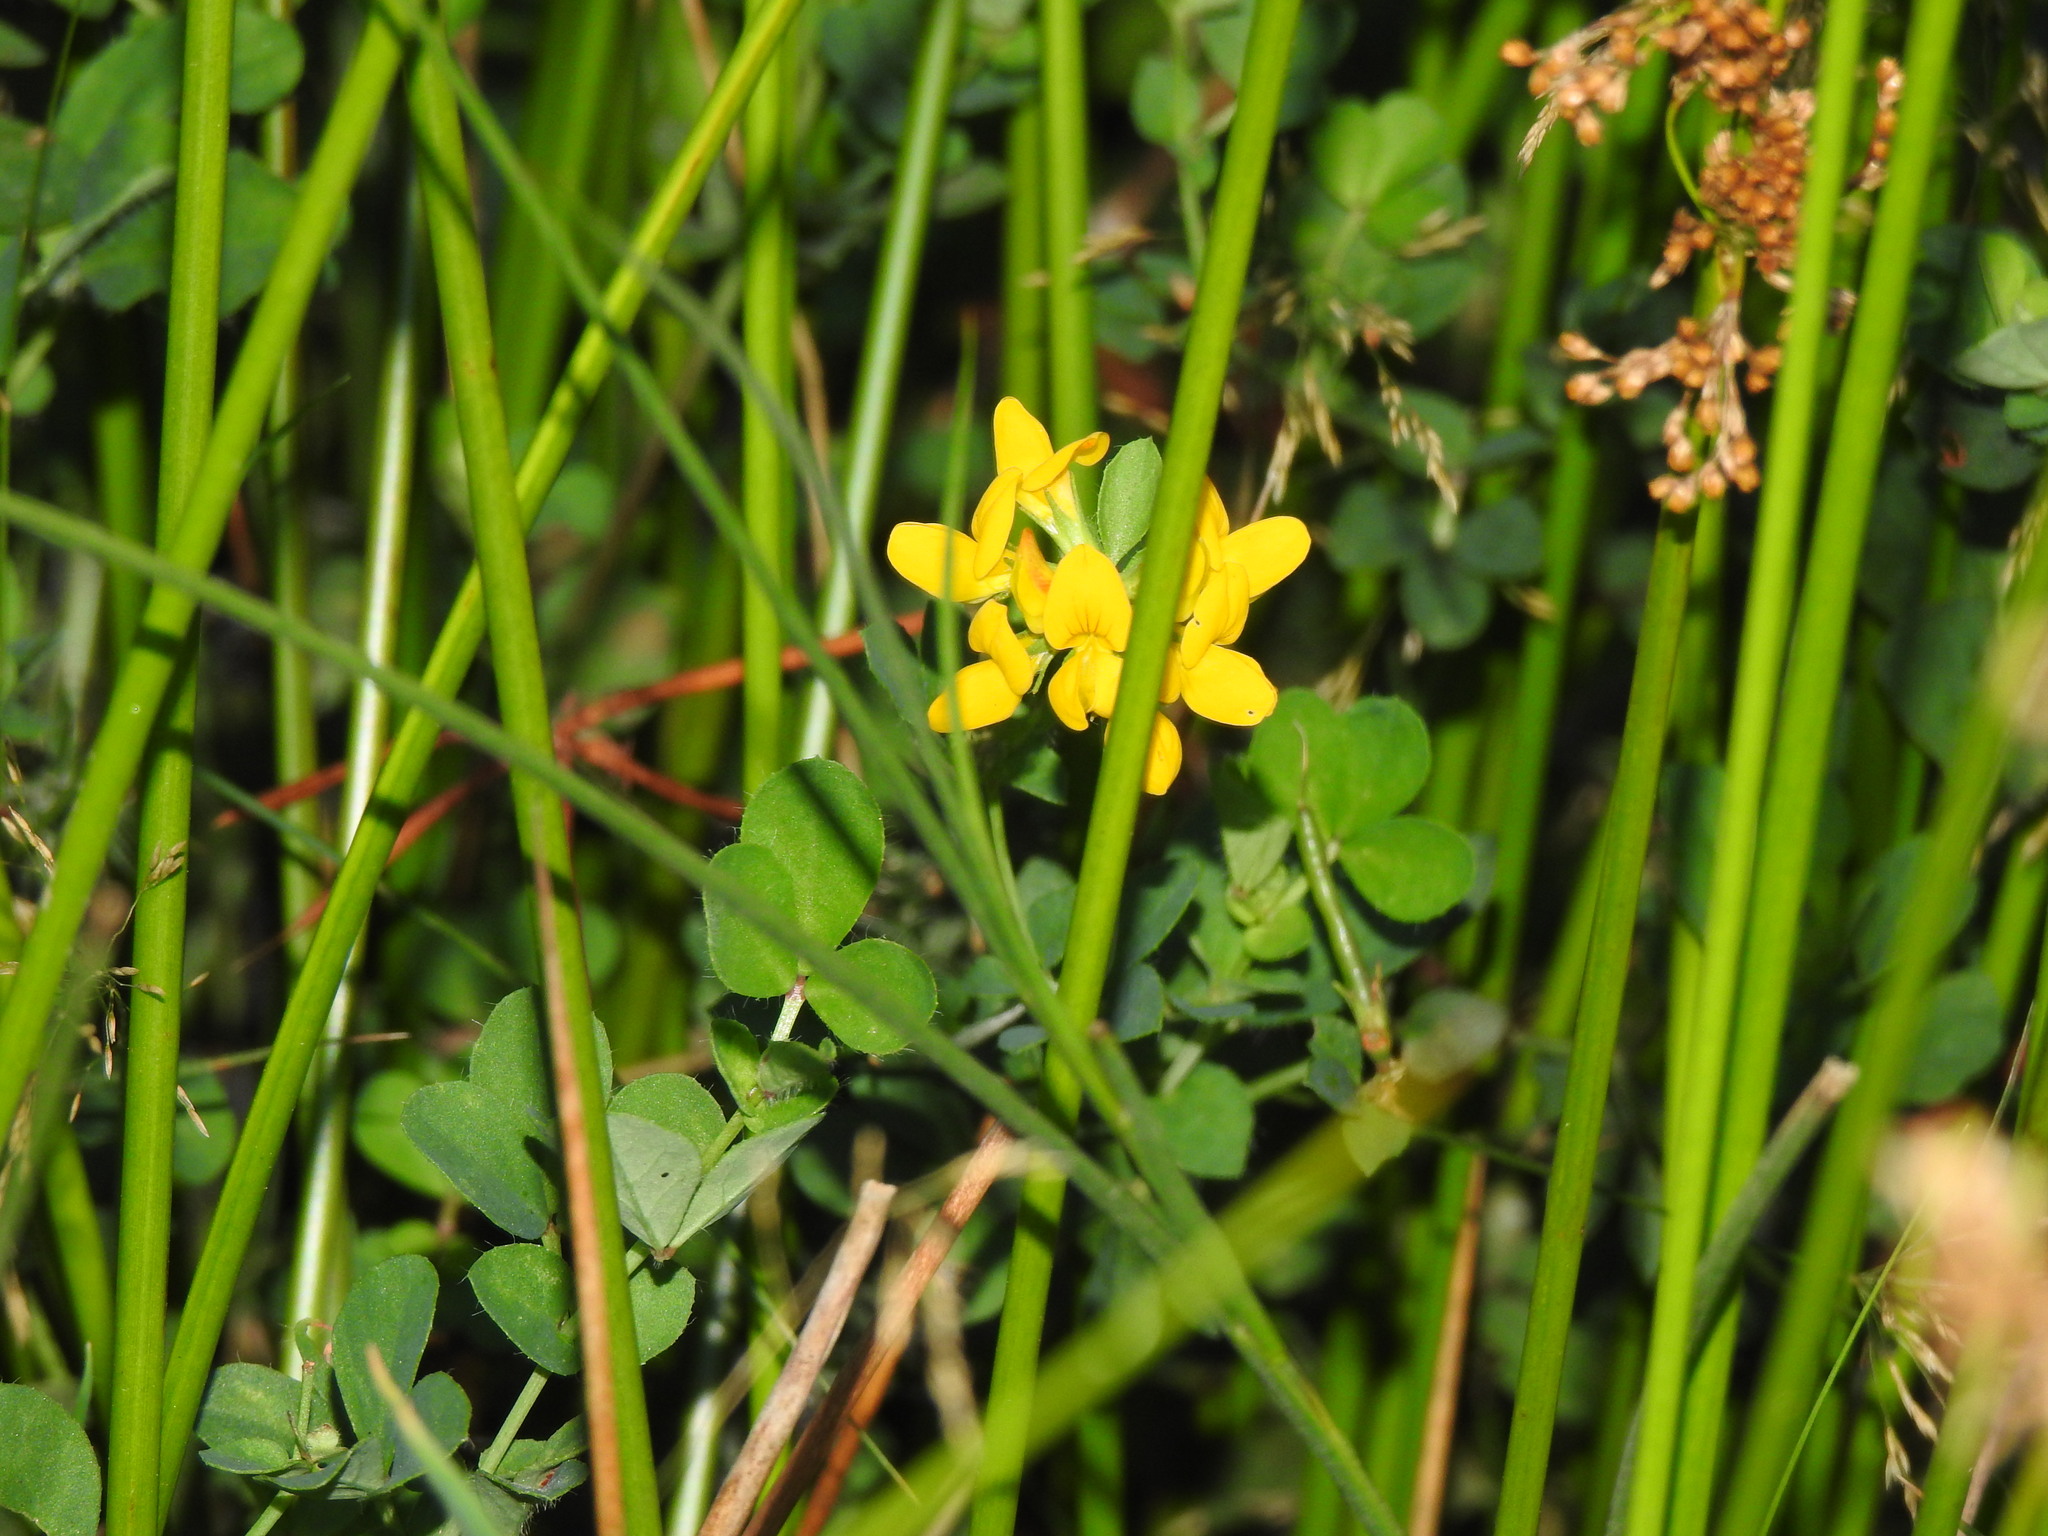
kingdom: Plantae
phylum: Tracheophyta
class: Magnoliopsida
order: Fabales
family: Fabaceae
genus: Lotus
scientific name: Lotus pedunculatus
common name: Greater birdsfoot-trefoil
